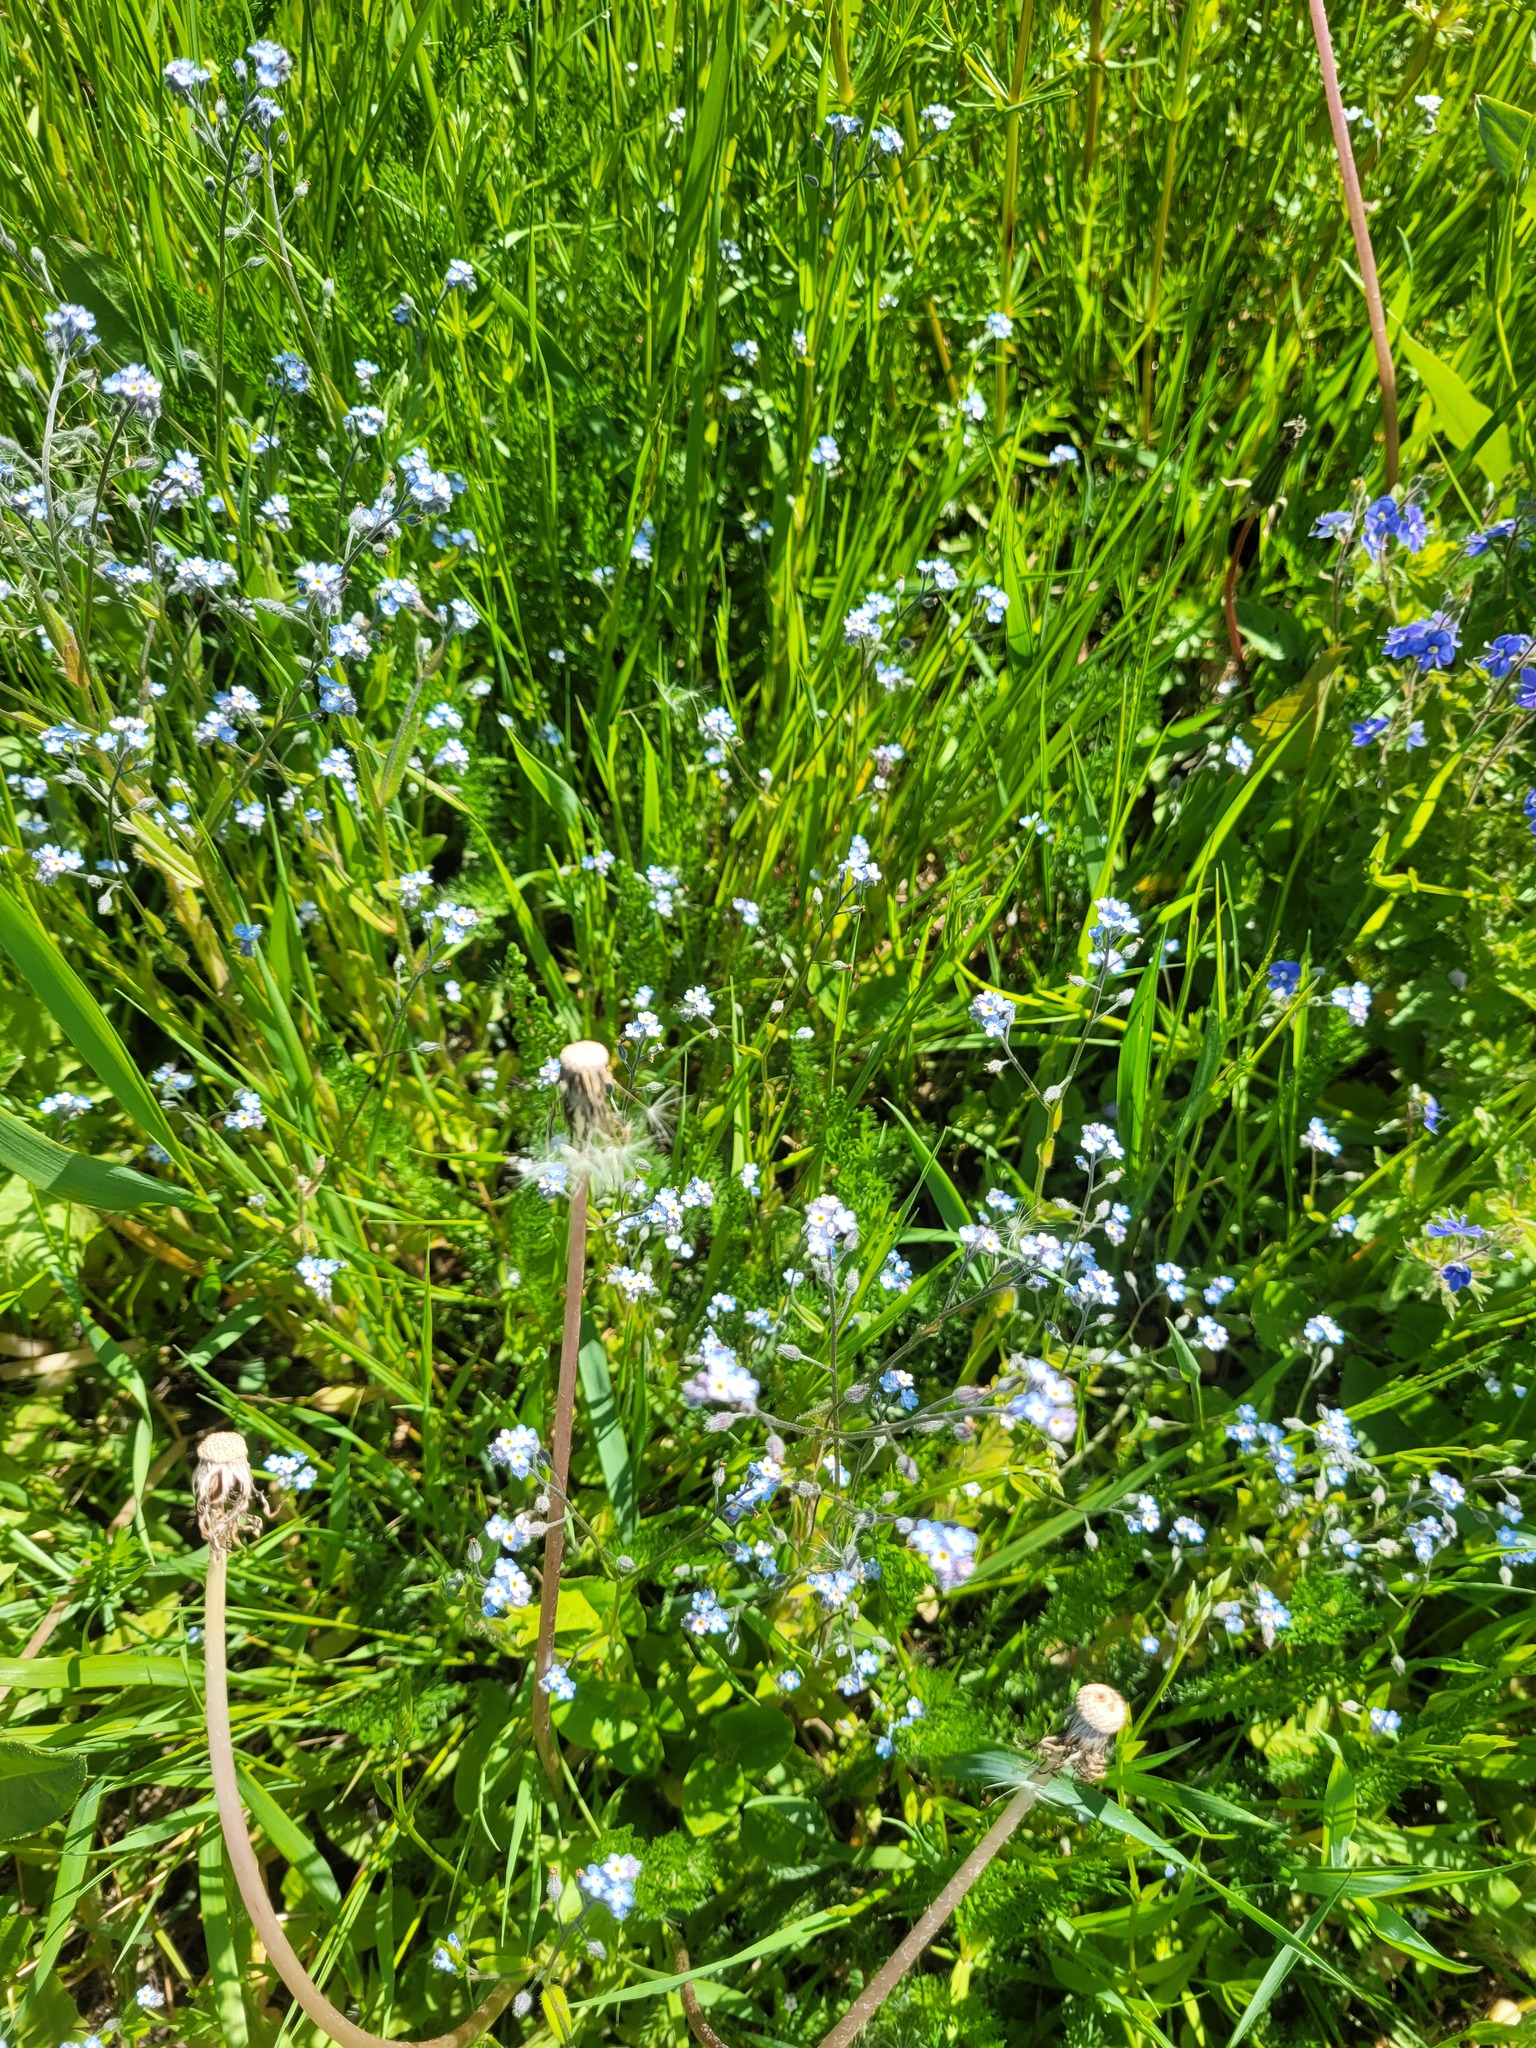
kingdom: Plantae
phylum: Tracheophyta
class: Magnoliopsida
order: Boraginales
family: Boraginaceae
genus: Myosotis
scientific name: Myosotis arvensis
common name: Field forget-me-not
